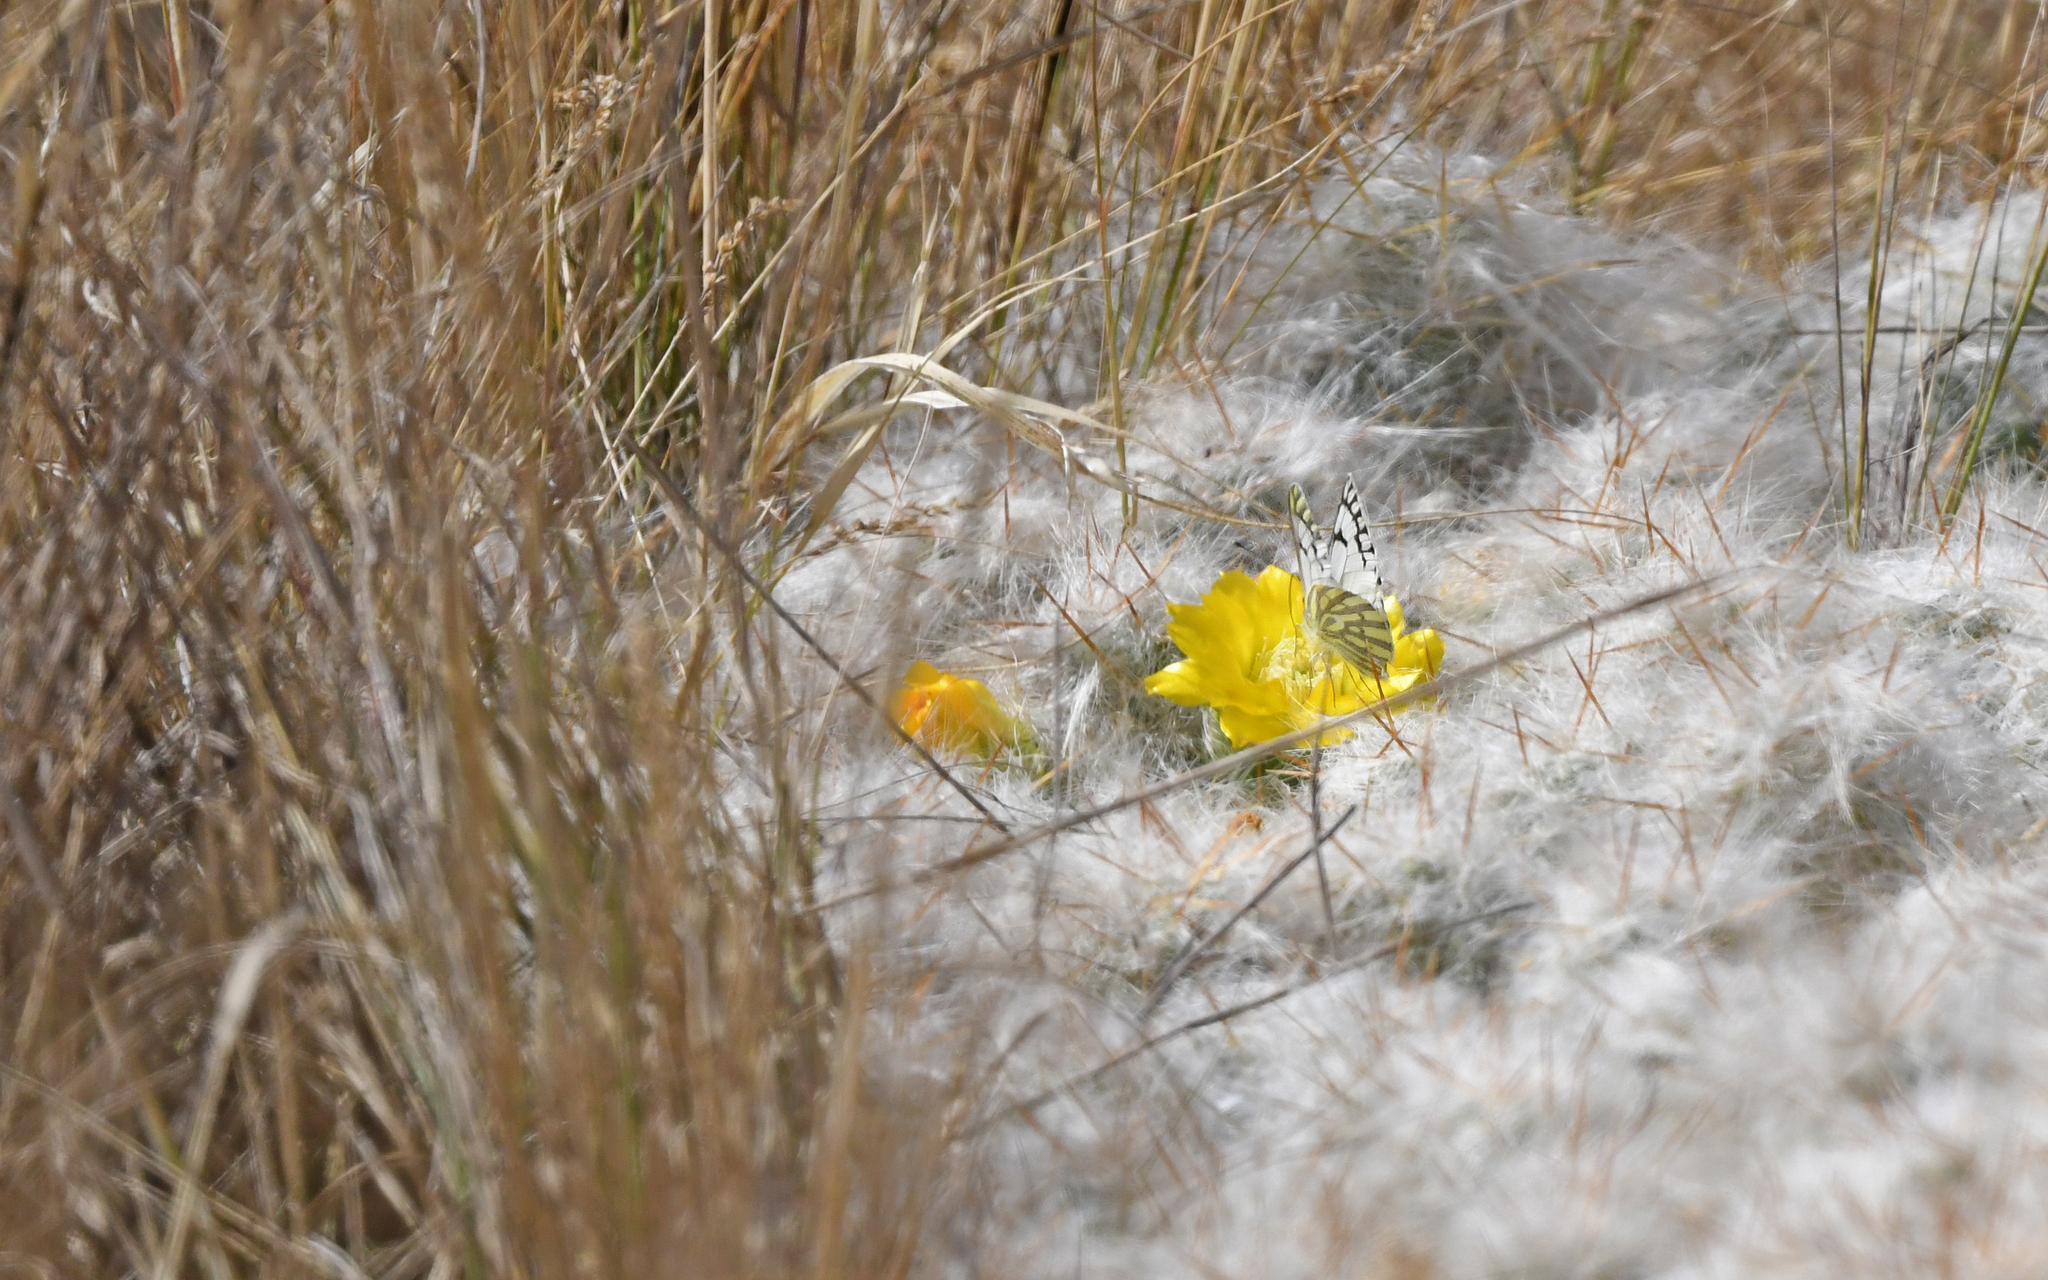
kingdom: Animalia
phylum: Arthropoda
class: Insecta
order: Lepidoptera
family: Pieridae
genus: Tatochila
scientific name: Tatochila mercedis
